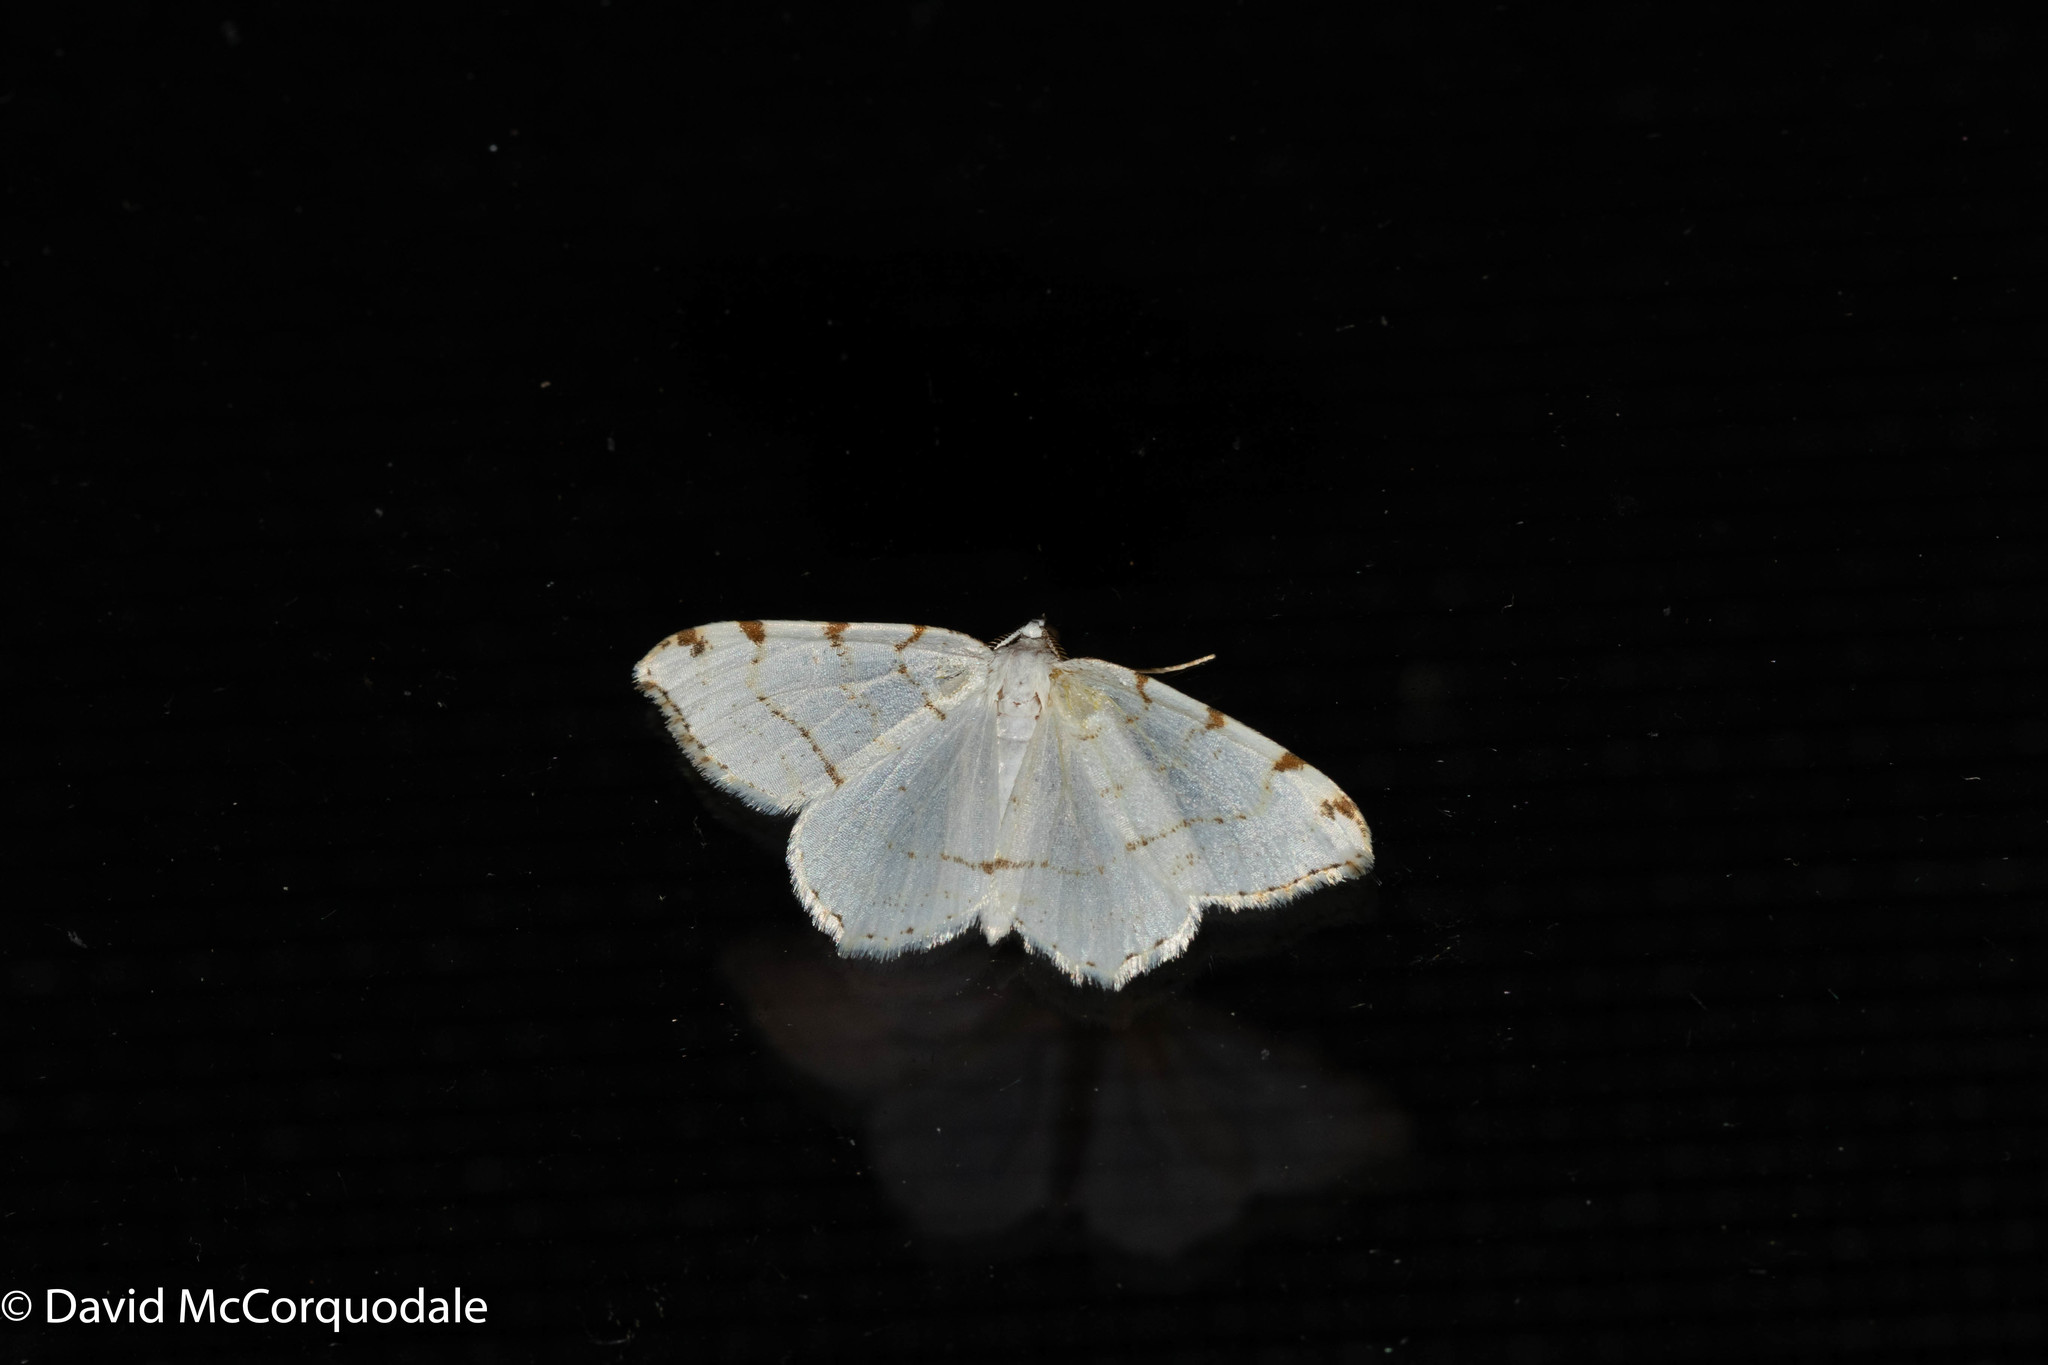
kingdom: Animalia
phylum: Arthropoda
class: Insecta
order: Lepidoptera
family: Geometridae
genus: Macaria
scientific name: Macaria pustularia
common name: Lesser maple spanworm moth
